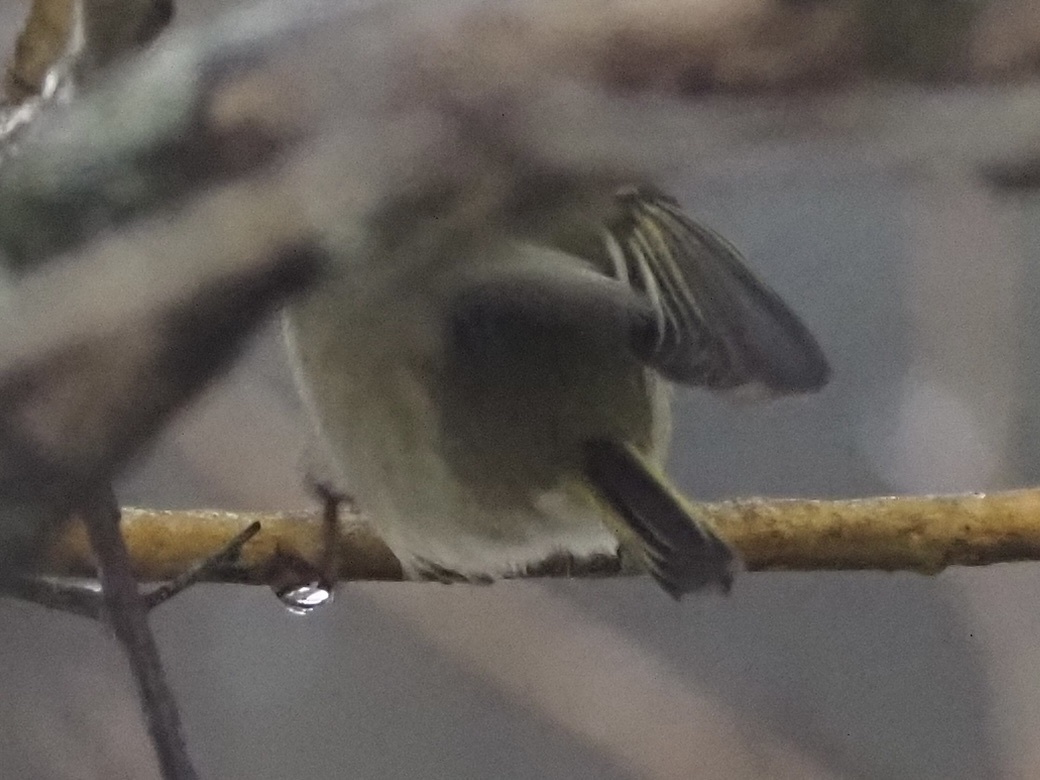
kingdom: Animalia
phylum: Chordata
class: Aves
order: Passeriformes
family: Regulidae
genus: Regulus
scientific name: Regulus calendula
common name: Ruby-crowned kinglet
